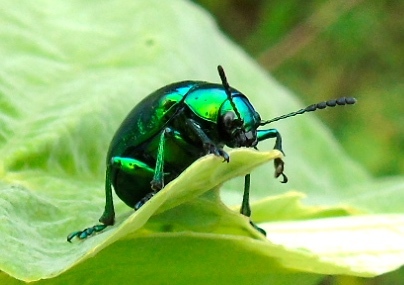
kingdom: Animalia
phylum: Arthropoda
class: Insecta
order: Coleoptera
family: Chrysomelidae
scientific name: Chrysomelidae
